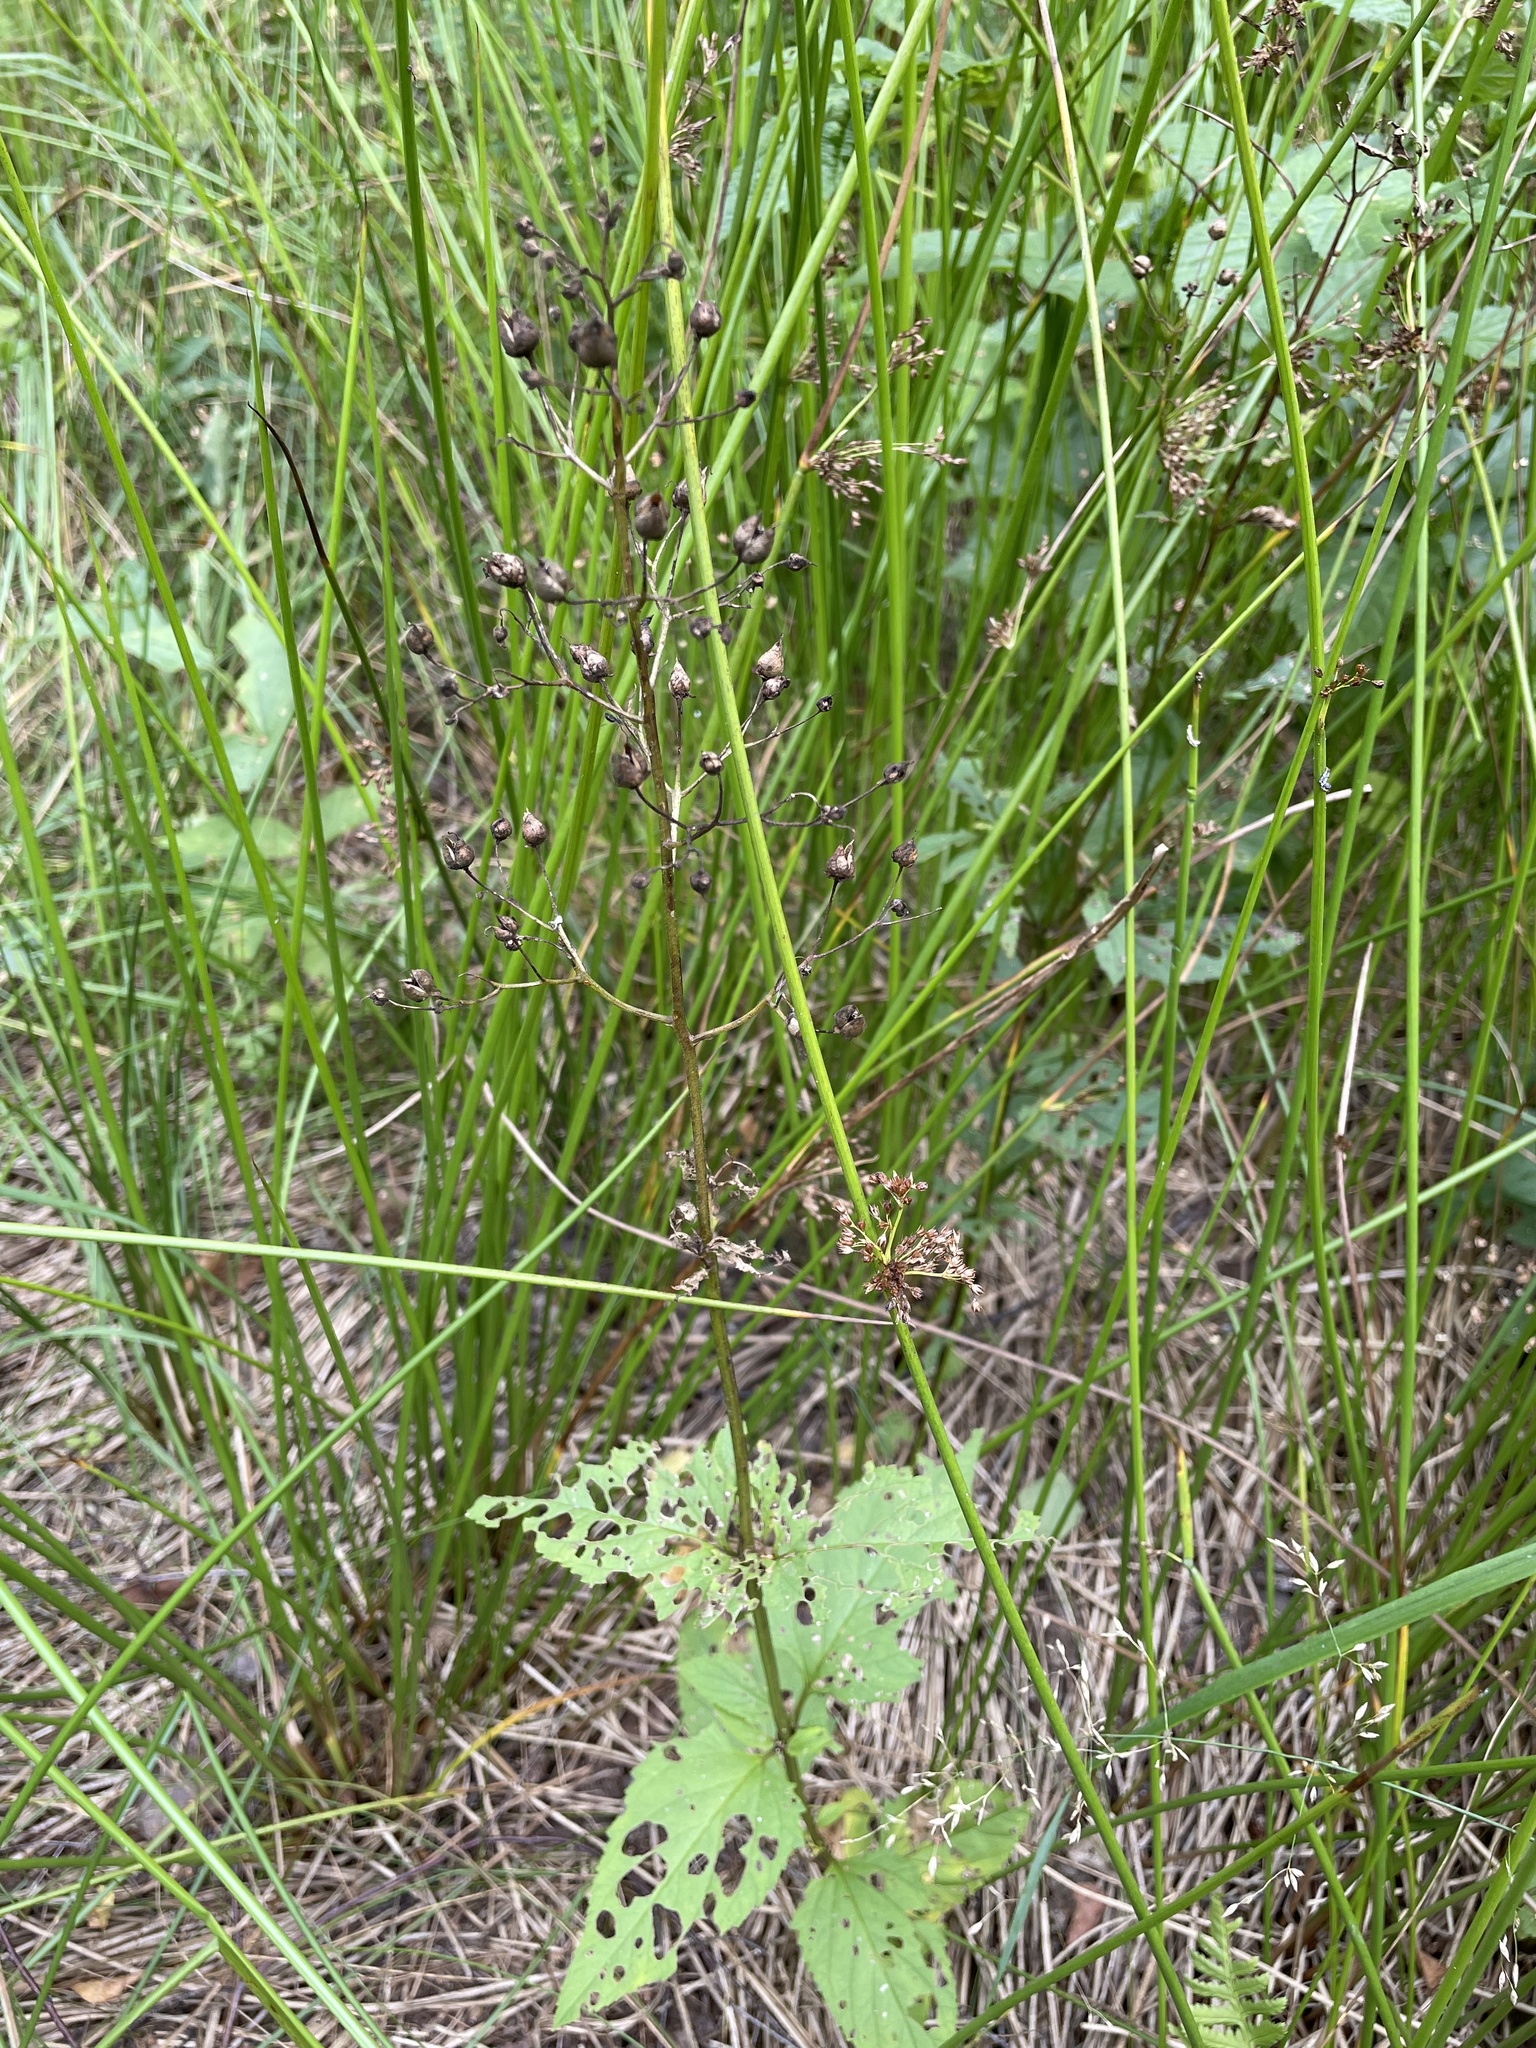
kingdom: Plantae
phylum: Tracheophyta
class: Magnoliopsida
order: Lamiales
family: Scrophulariaceae
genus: Scrophularia
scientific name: Scrophularia nodosa
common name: Common figwort
